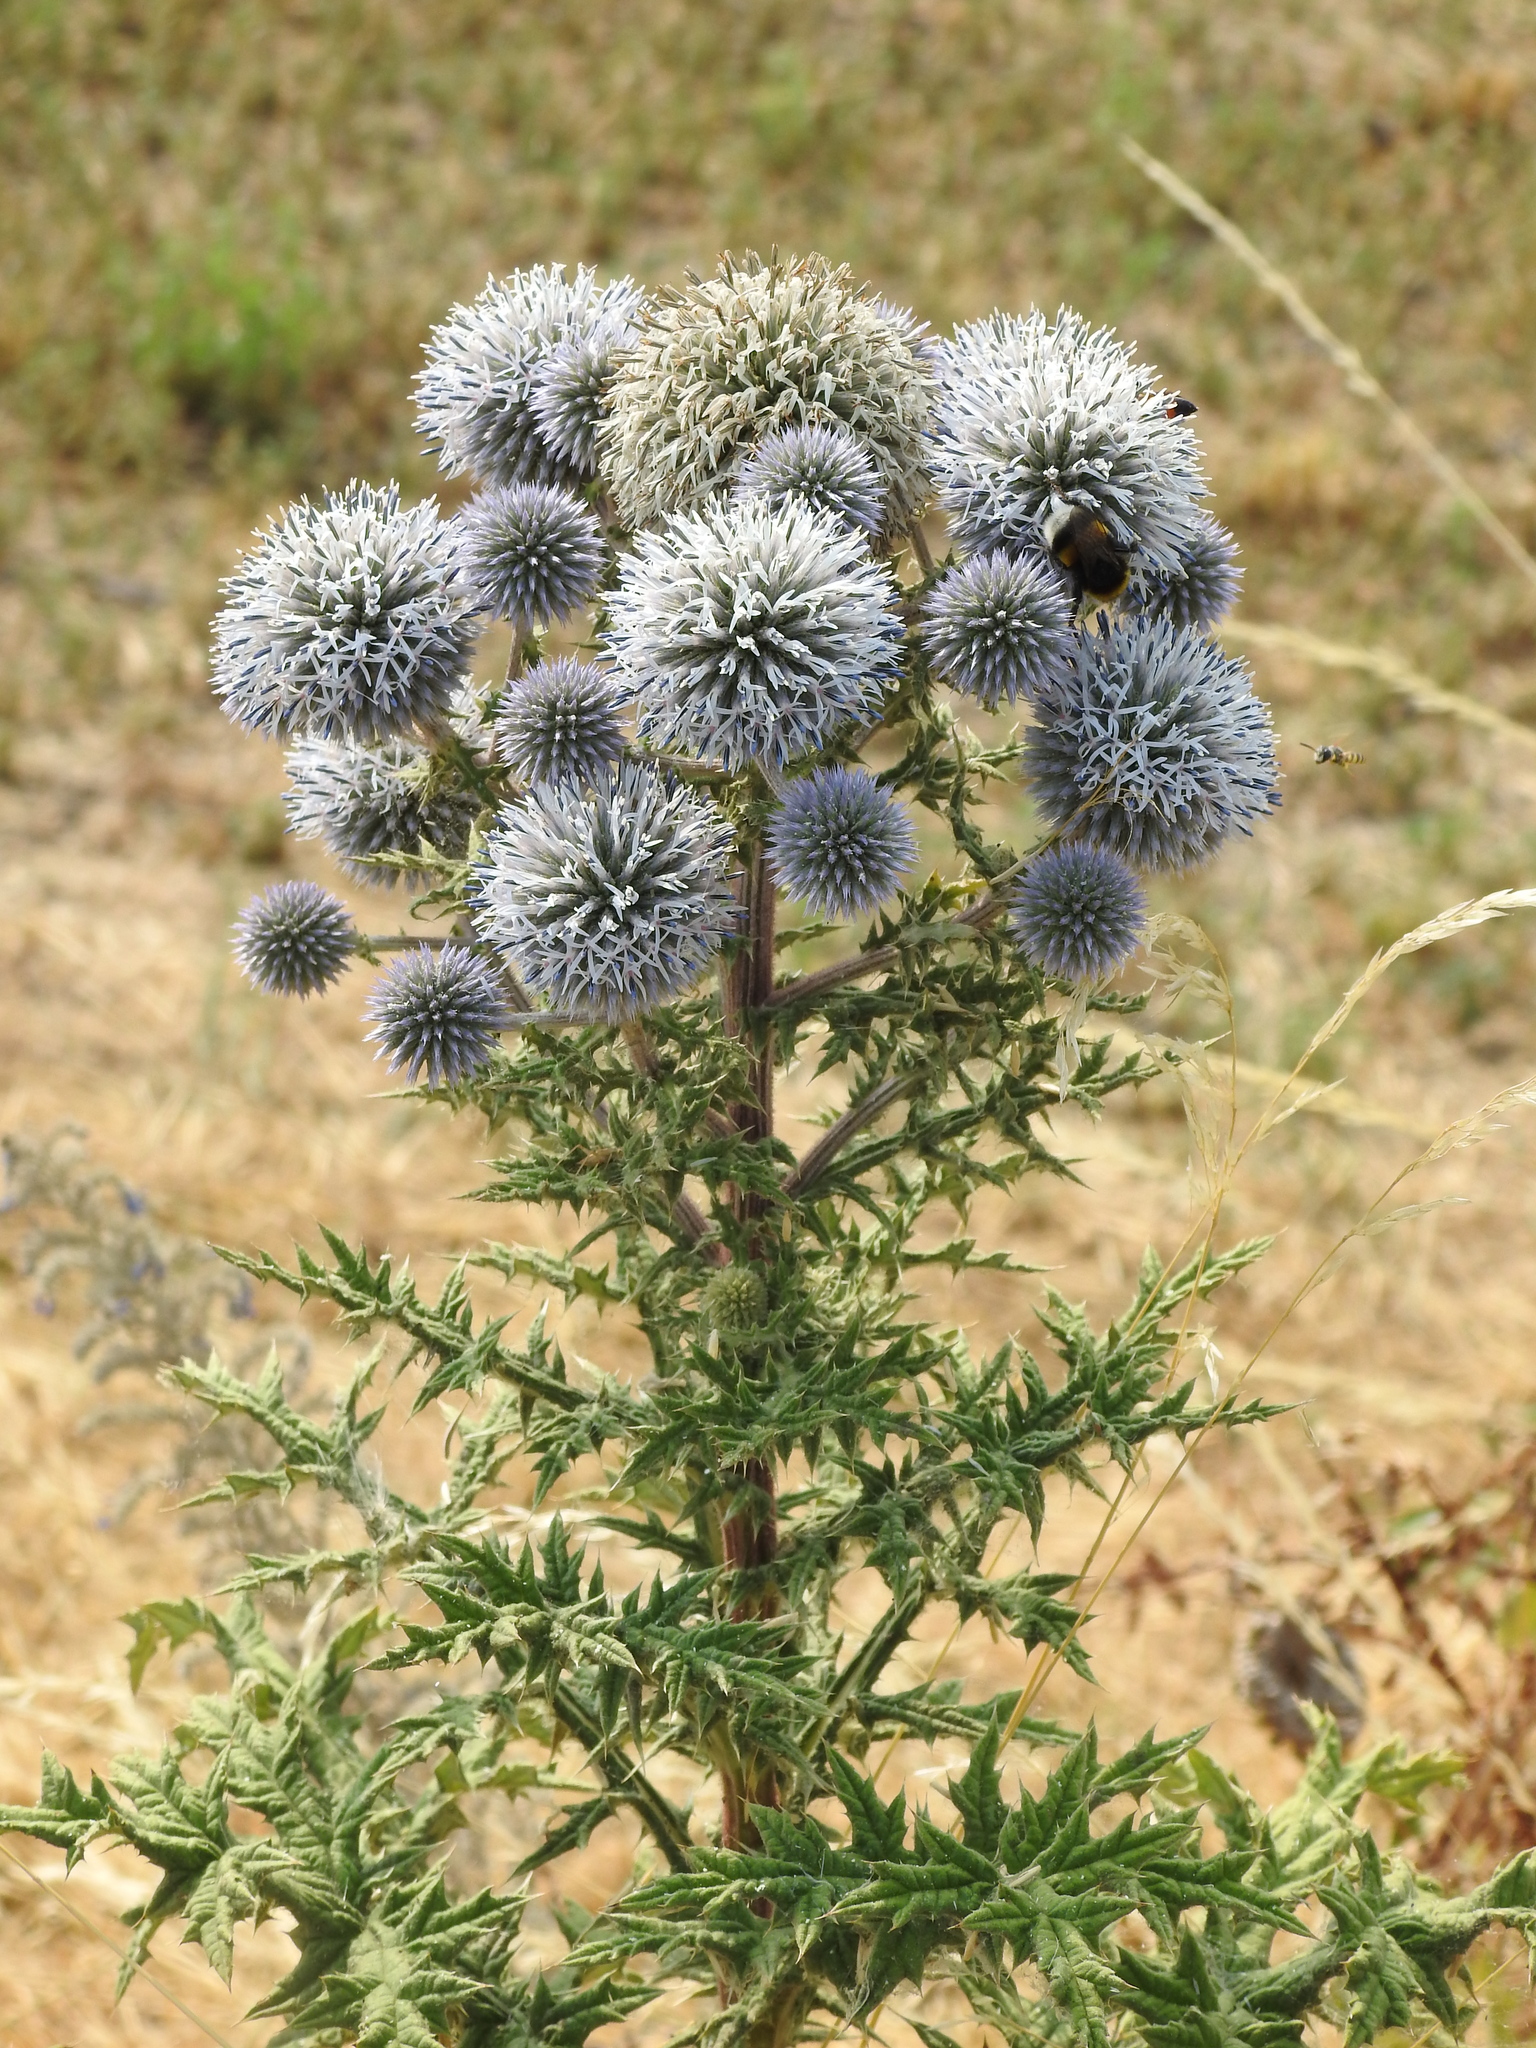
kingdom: Plantae
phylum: Tracheophyta
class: Magnoliopsida
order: Asterales
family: Asteraceae
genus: Echinops
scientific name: Echinops sphaerocephalus
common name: Glandular globe-thistle
